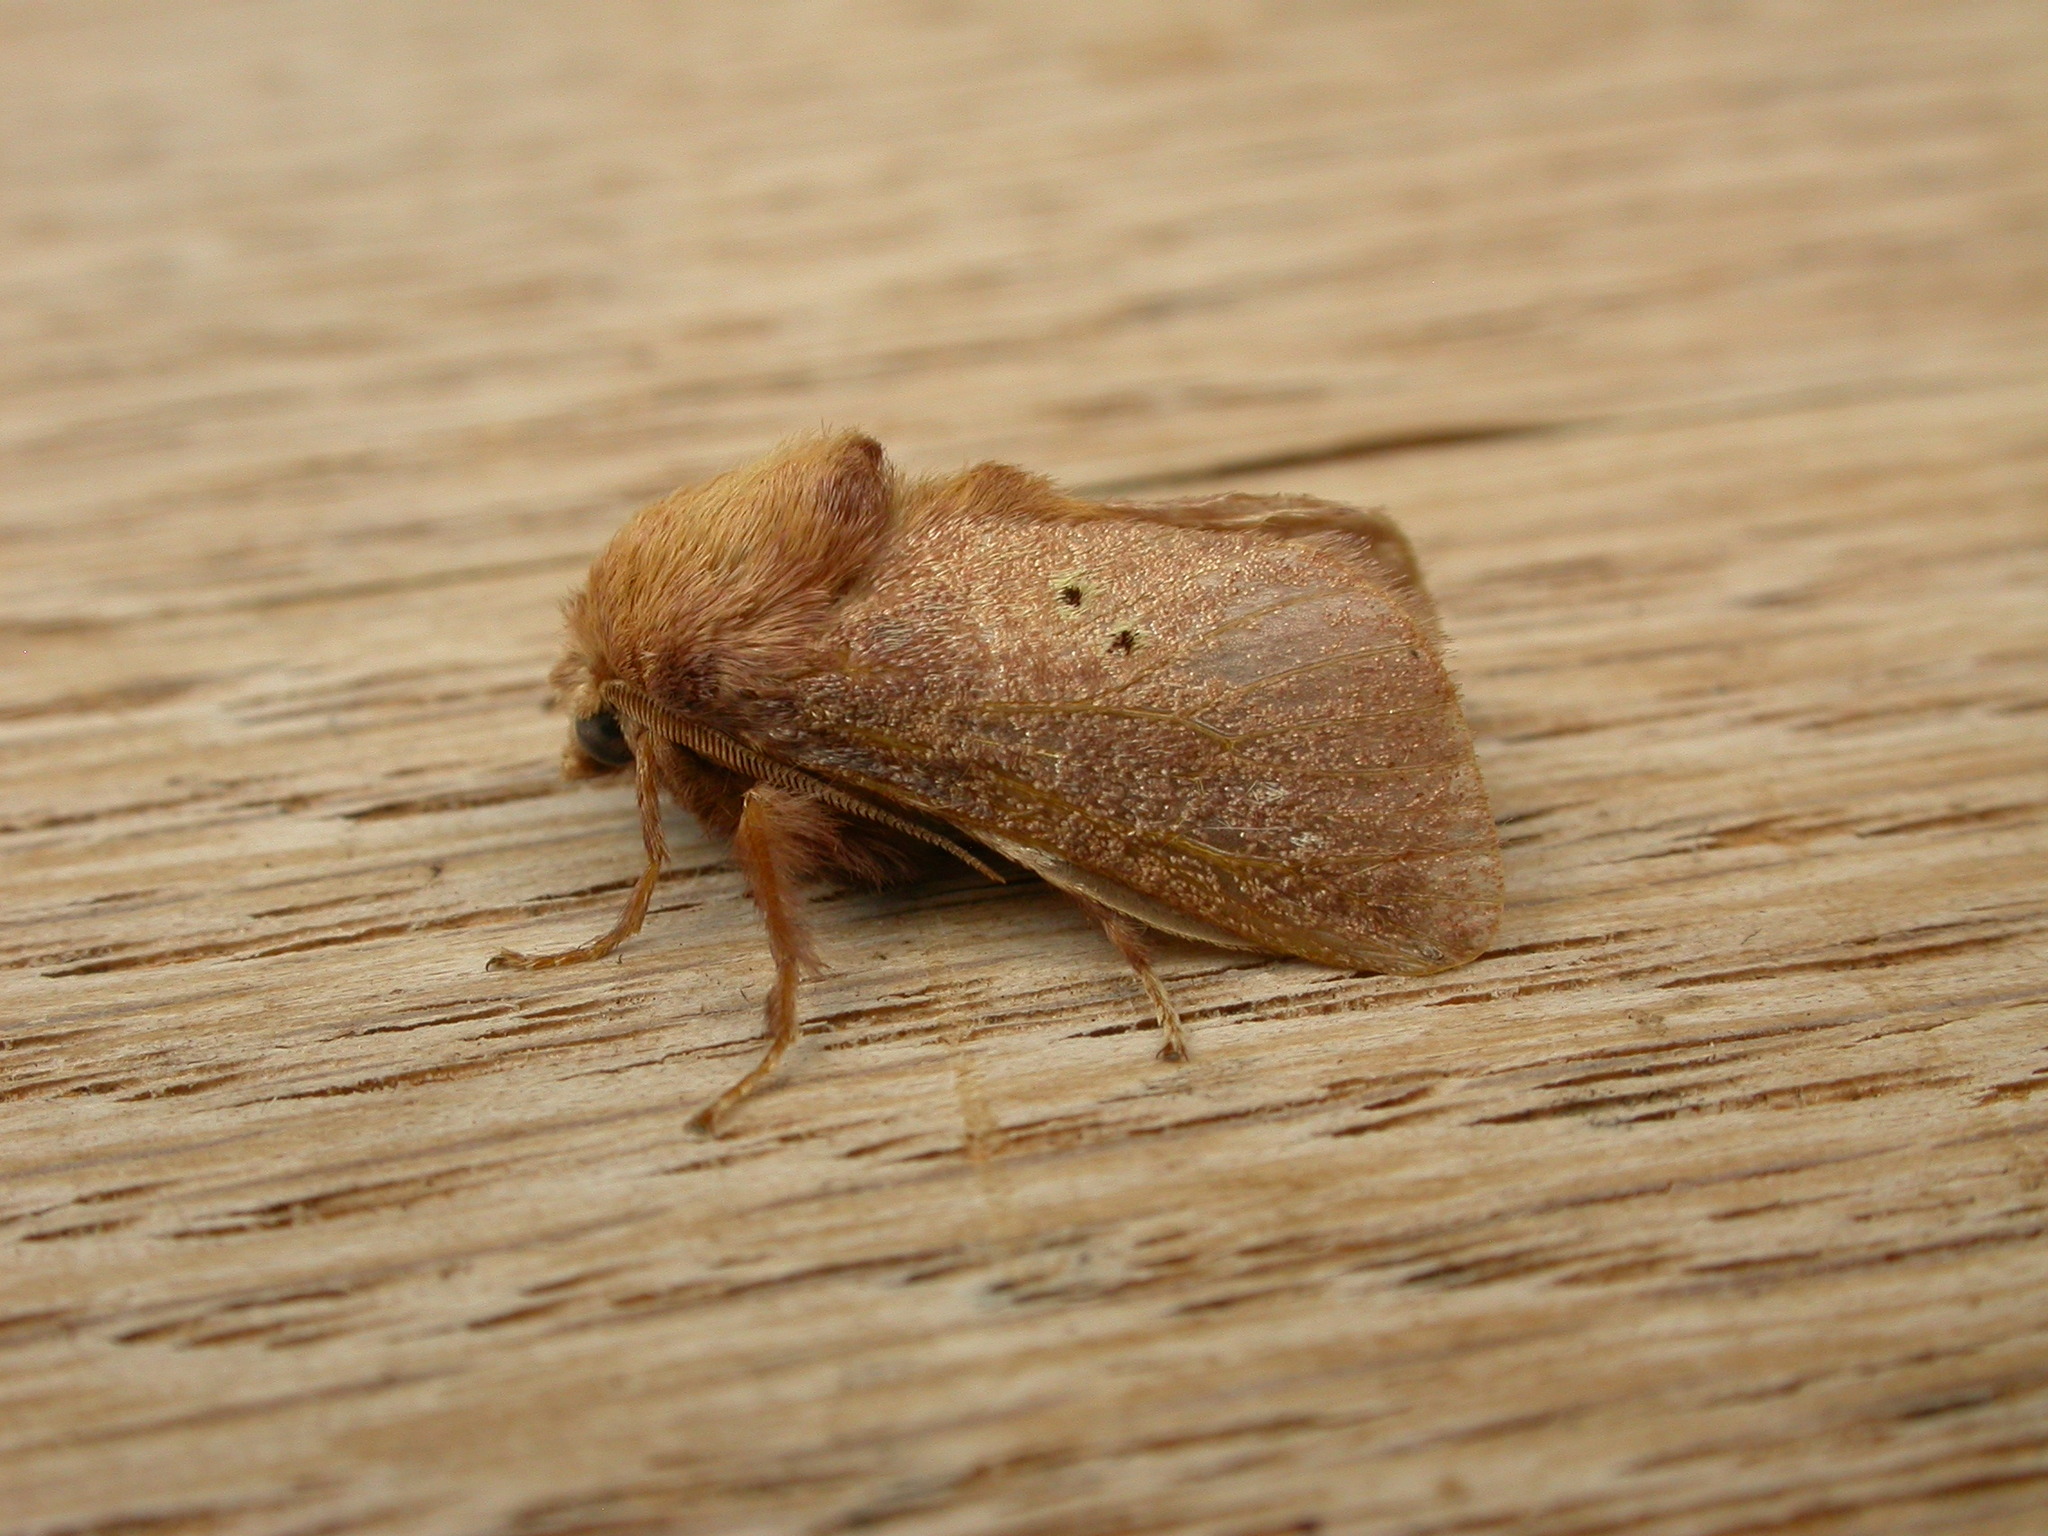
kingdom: Animalia
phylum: Arthropoda
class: Insecta
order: Lepidoptera
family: Limacodidae
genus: Doratifera
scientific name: Doratifera quadriguttata
